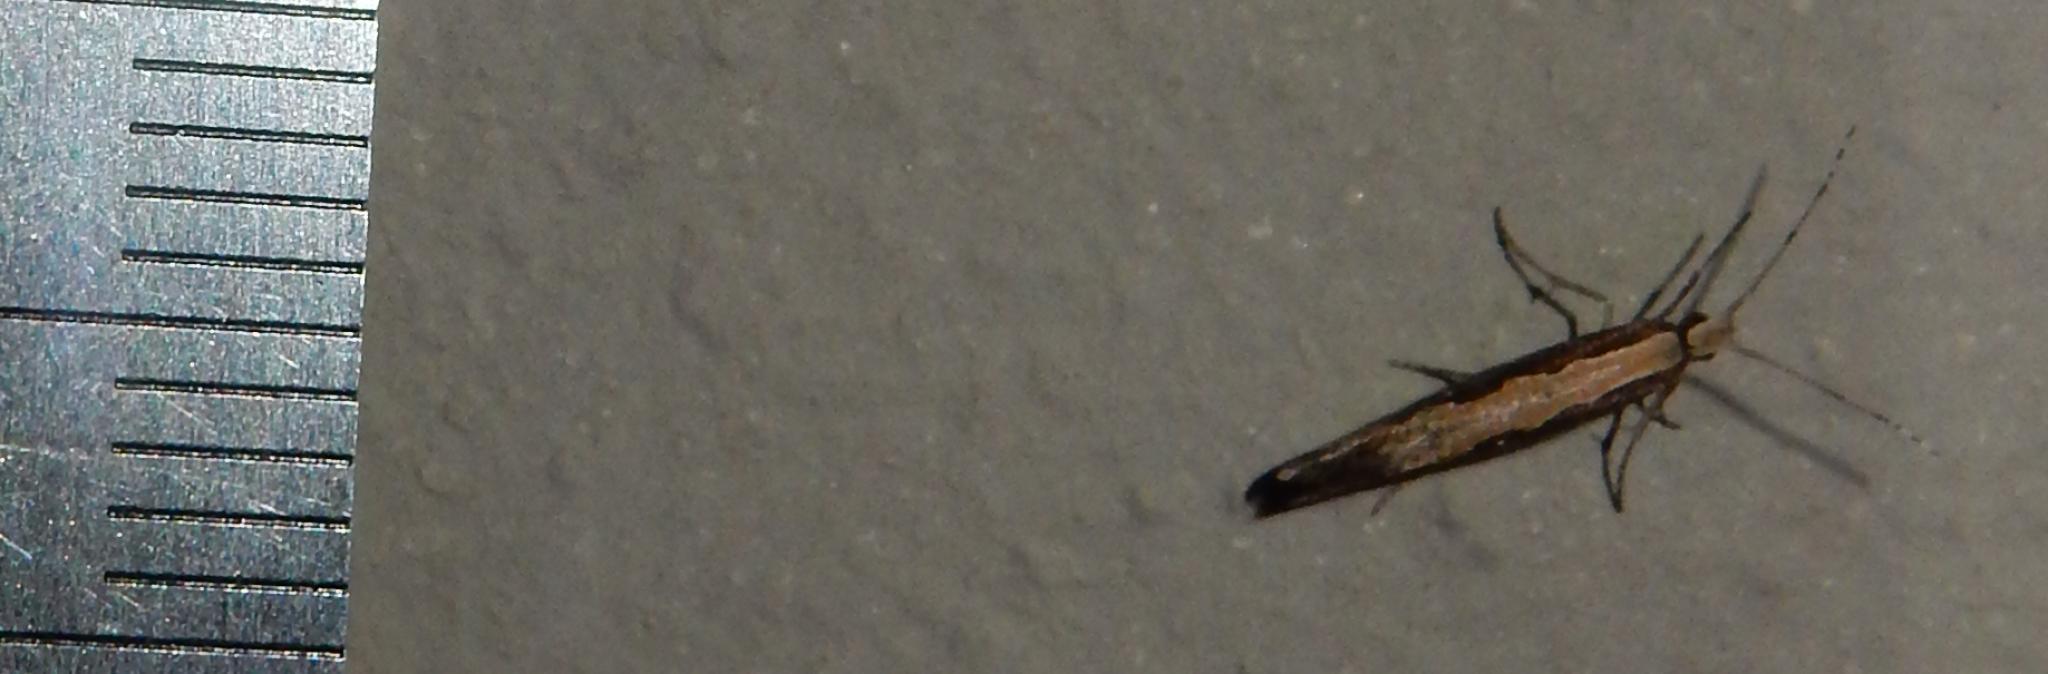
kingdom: Animalia
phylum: Arthropoda
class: Insecta
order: Lepidoptera
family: Plutellidae
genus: Plutella
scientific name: Plutella xylostella
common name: Diamond-back moth
